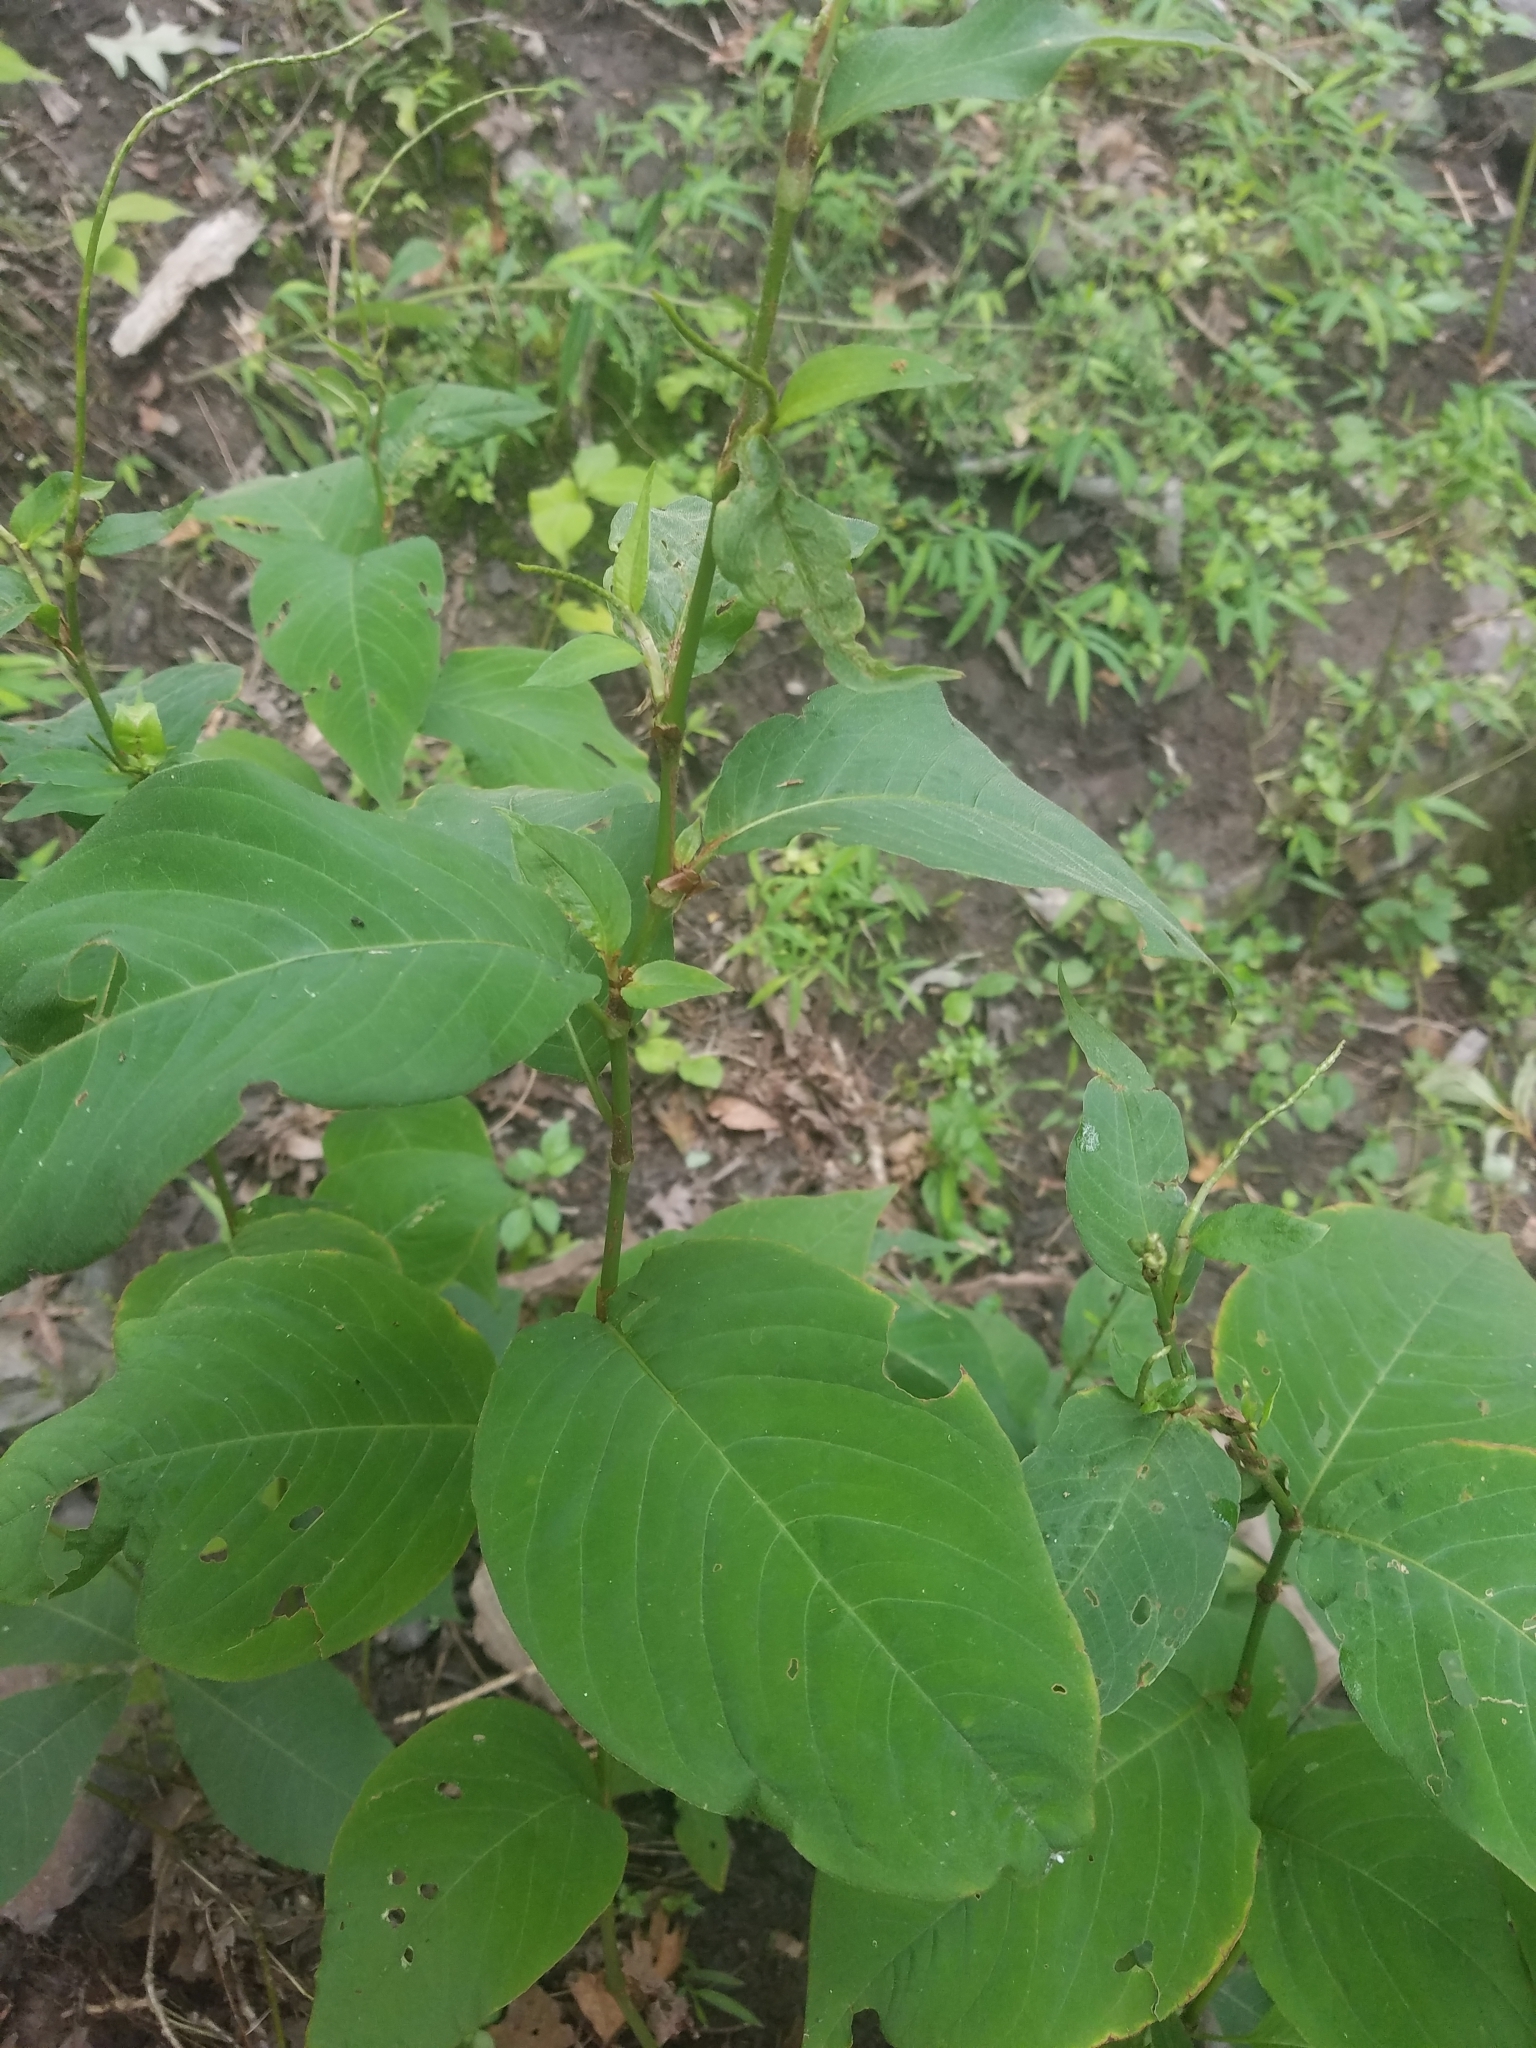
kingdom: Plantae
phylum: Tracheophyta
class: Magnoliopsida
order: Caryophyllales
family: Polygonaceae
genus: Persicaria
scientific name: Persicaria virginiana
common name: Jumpseed
